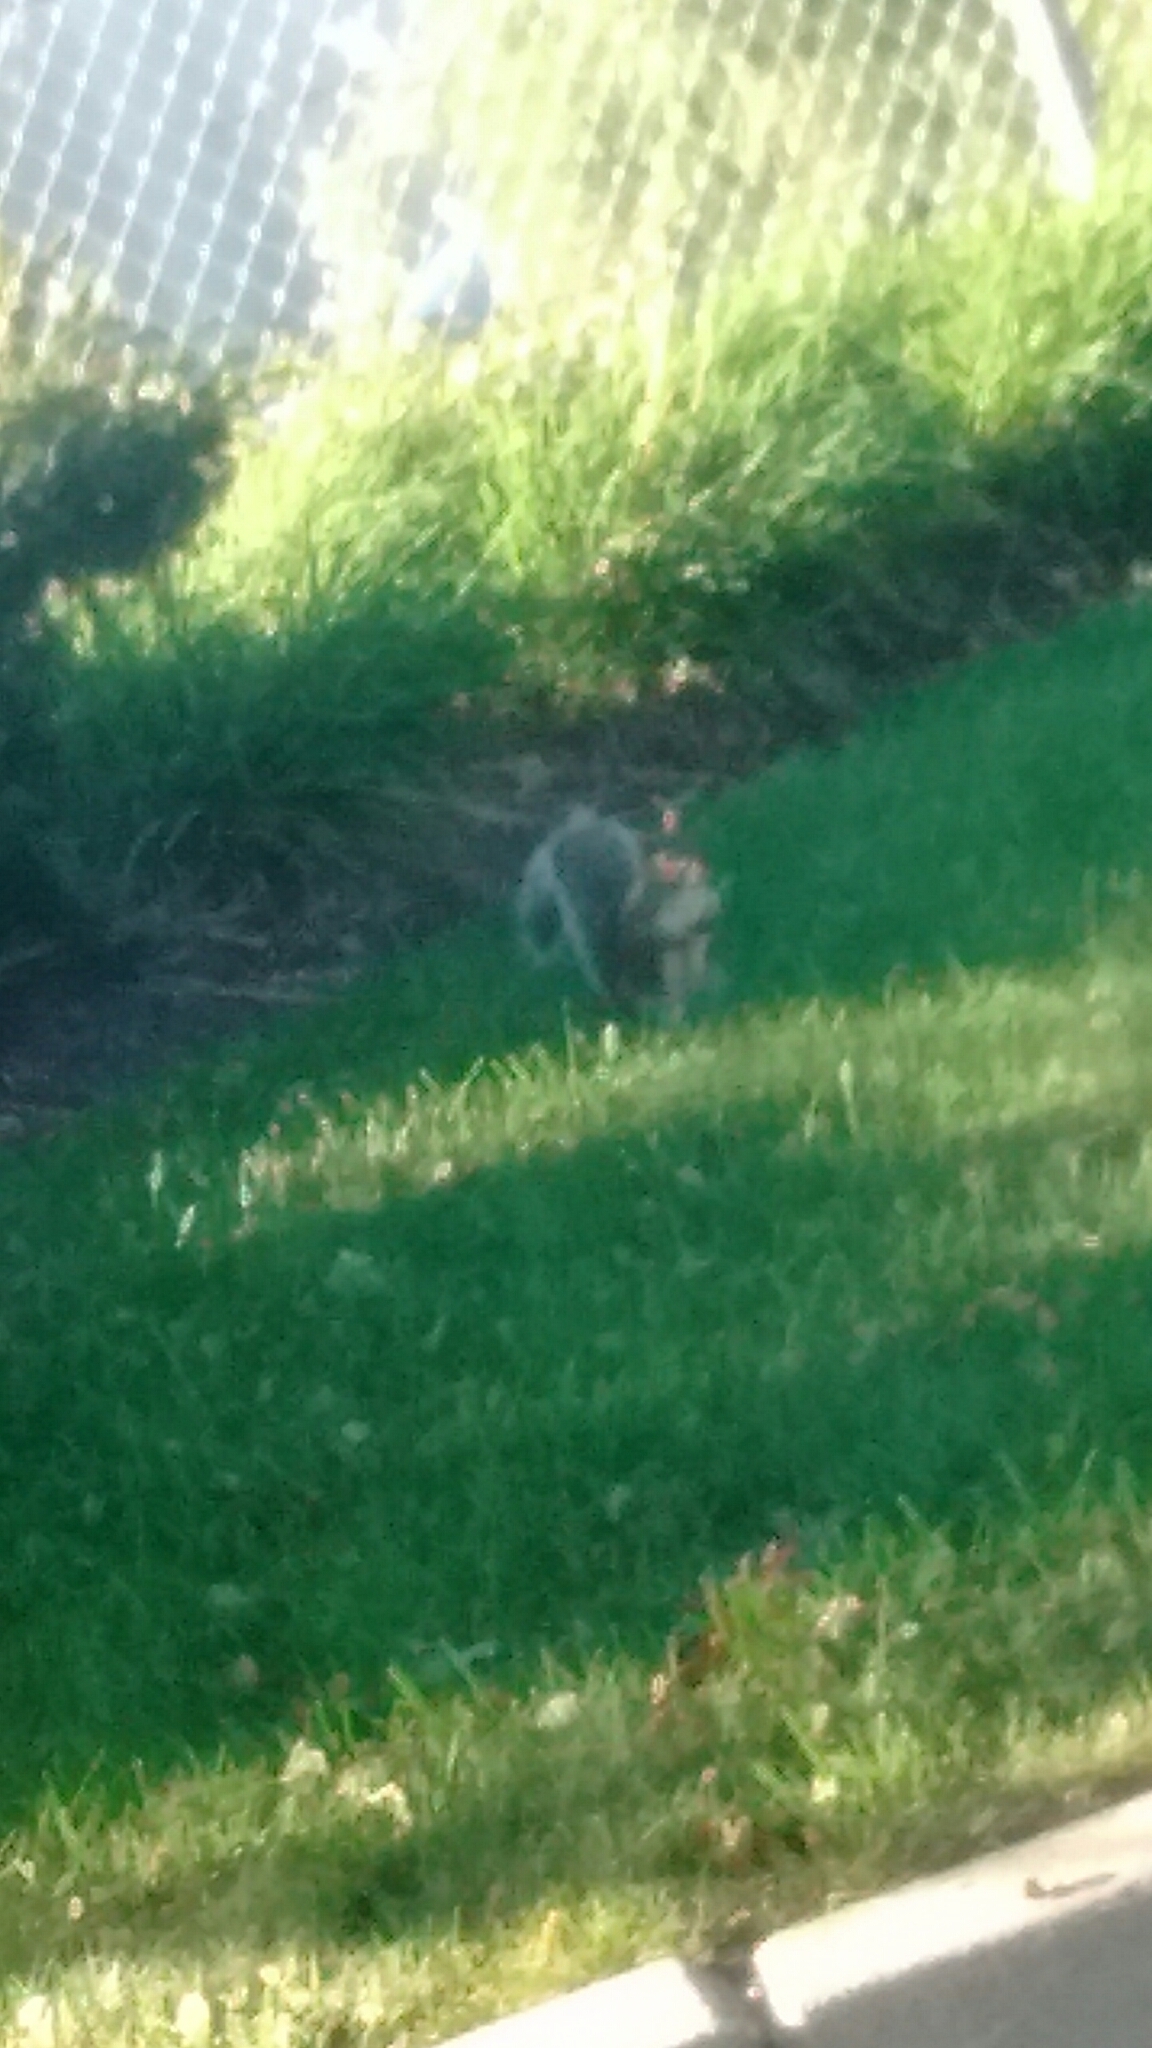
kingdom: Animalia
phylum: Chordata
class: Mammalia
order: Rodentia
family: Sciuridae
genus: Sciurus
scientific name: Sciurus carolinensis
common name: Eastern gray squirrel
